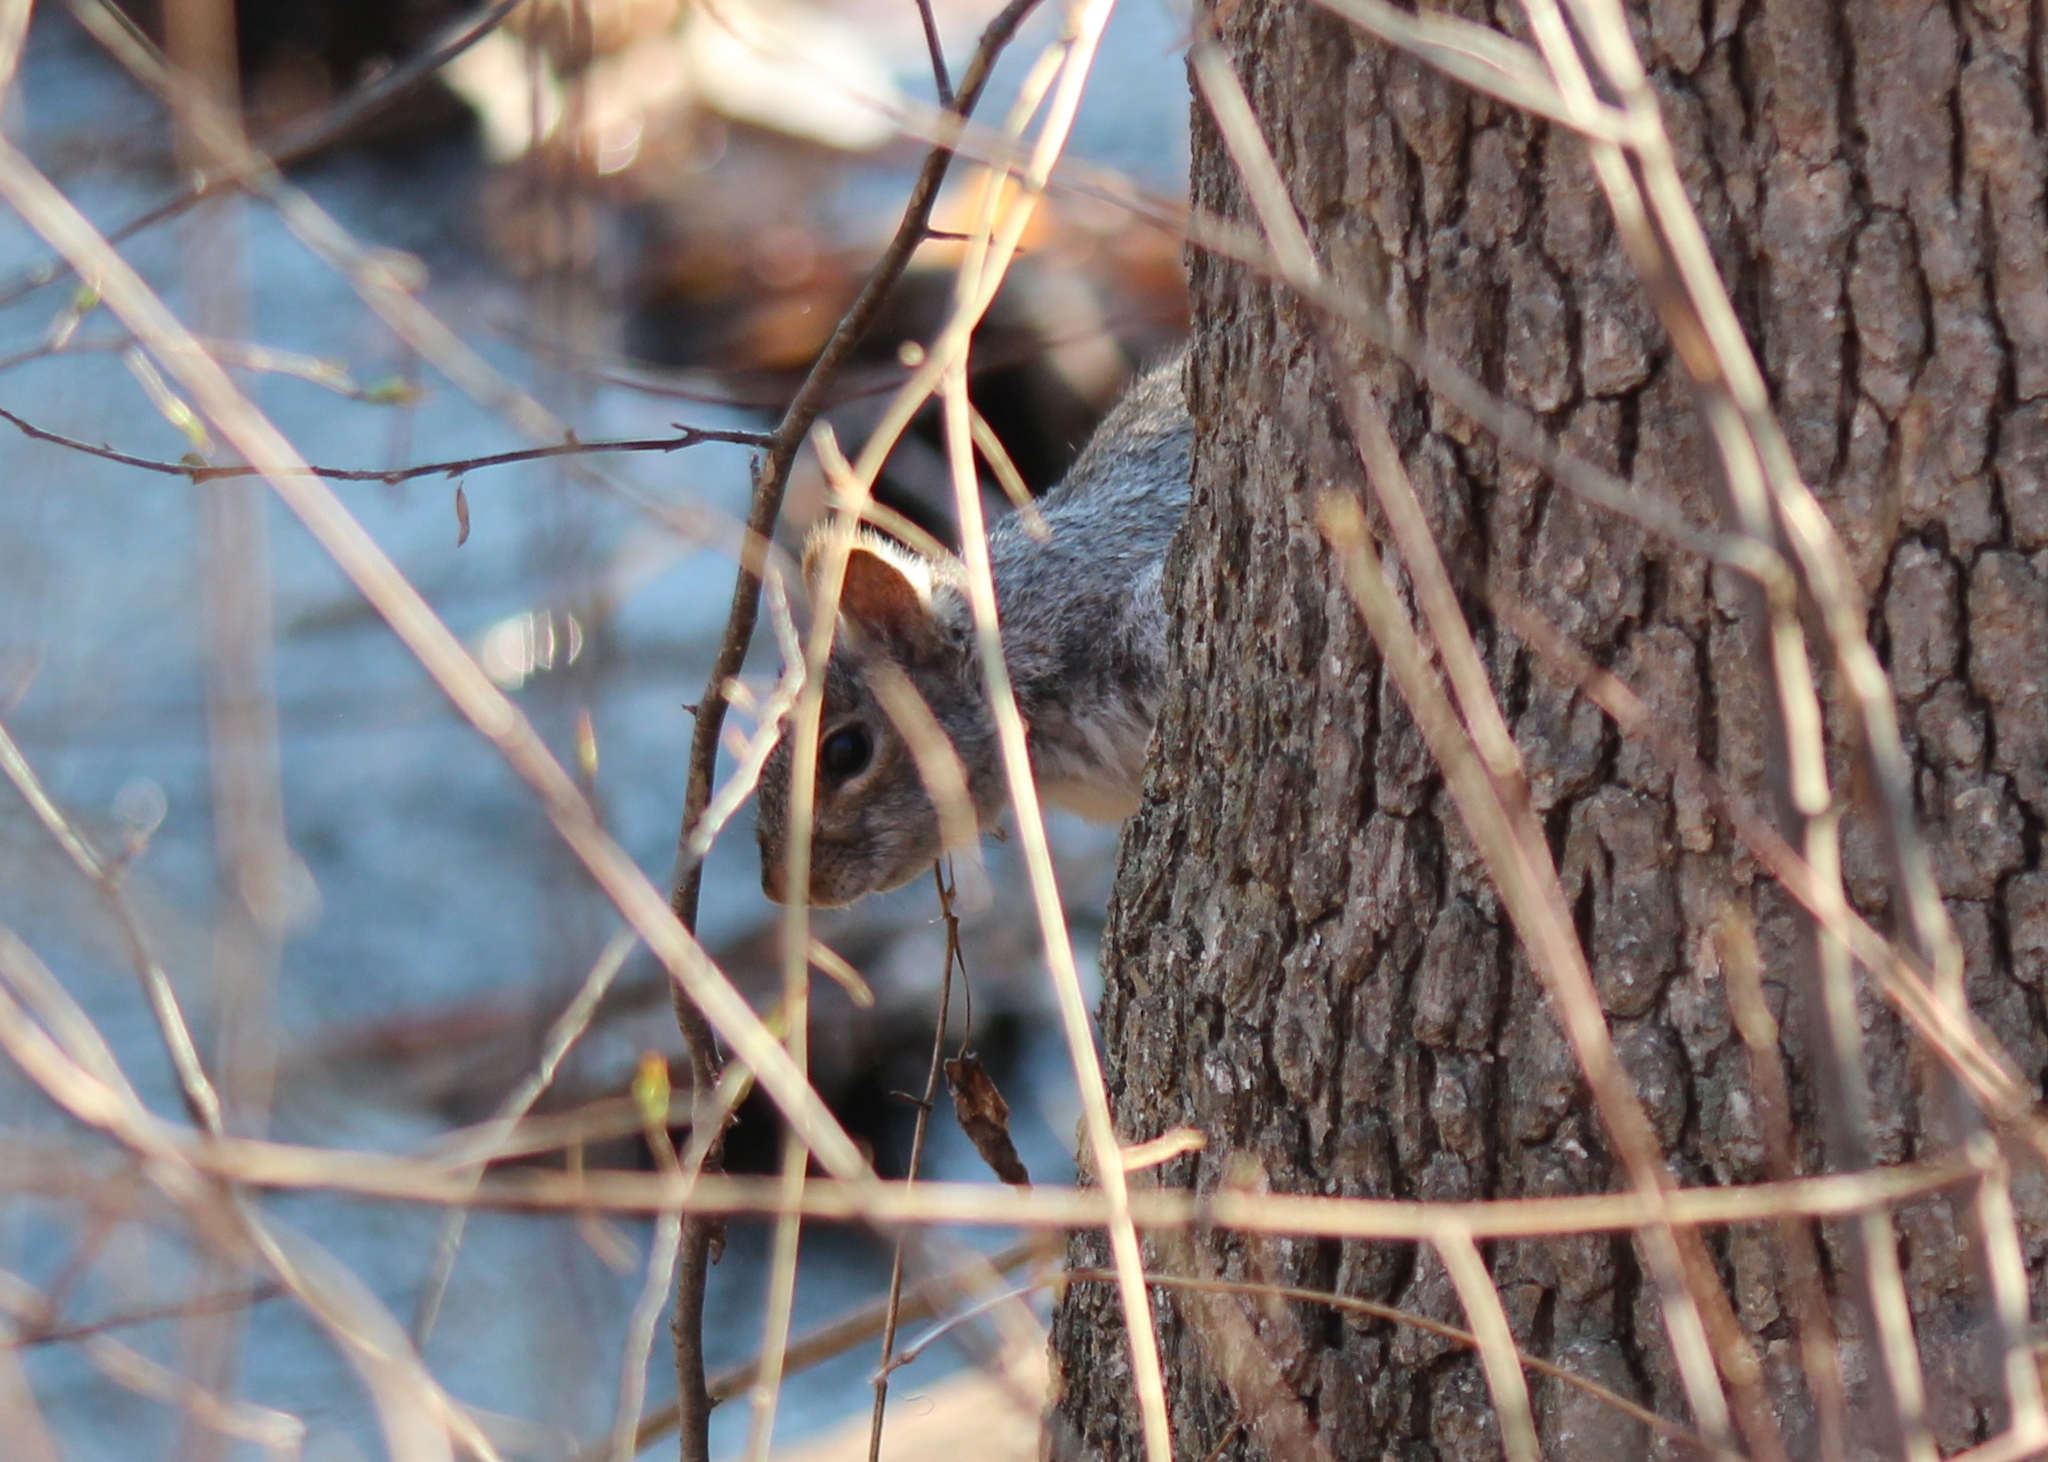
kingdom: Animalia
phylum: Chordata
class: Mammalia
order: Rodentia
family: Sciuridae
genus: Sciurus
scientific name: Sciurus carolinensis
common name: Eastern gray squirrel
